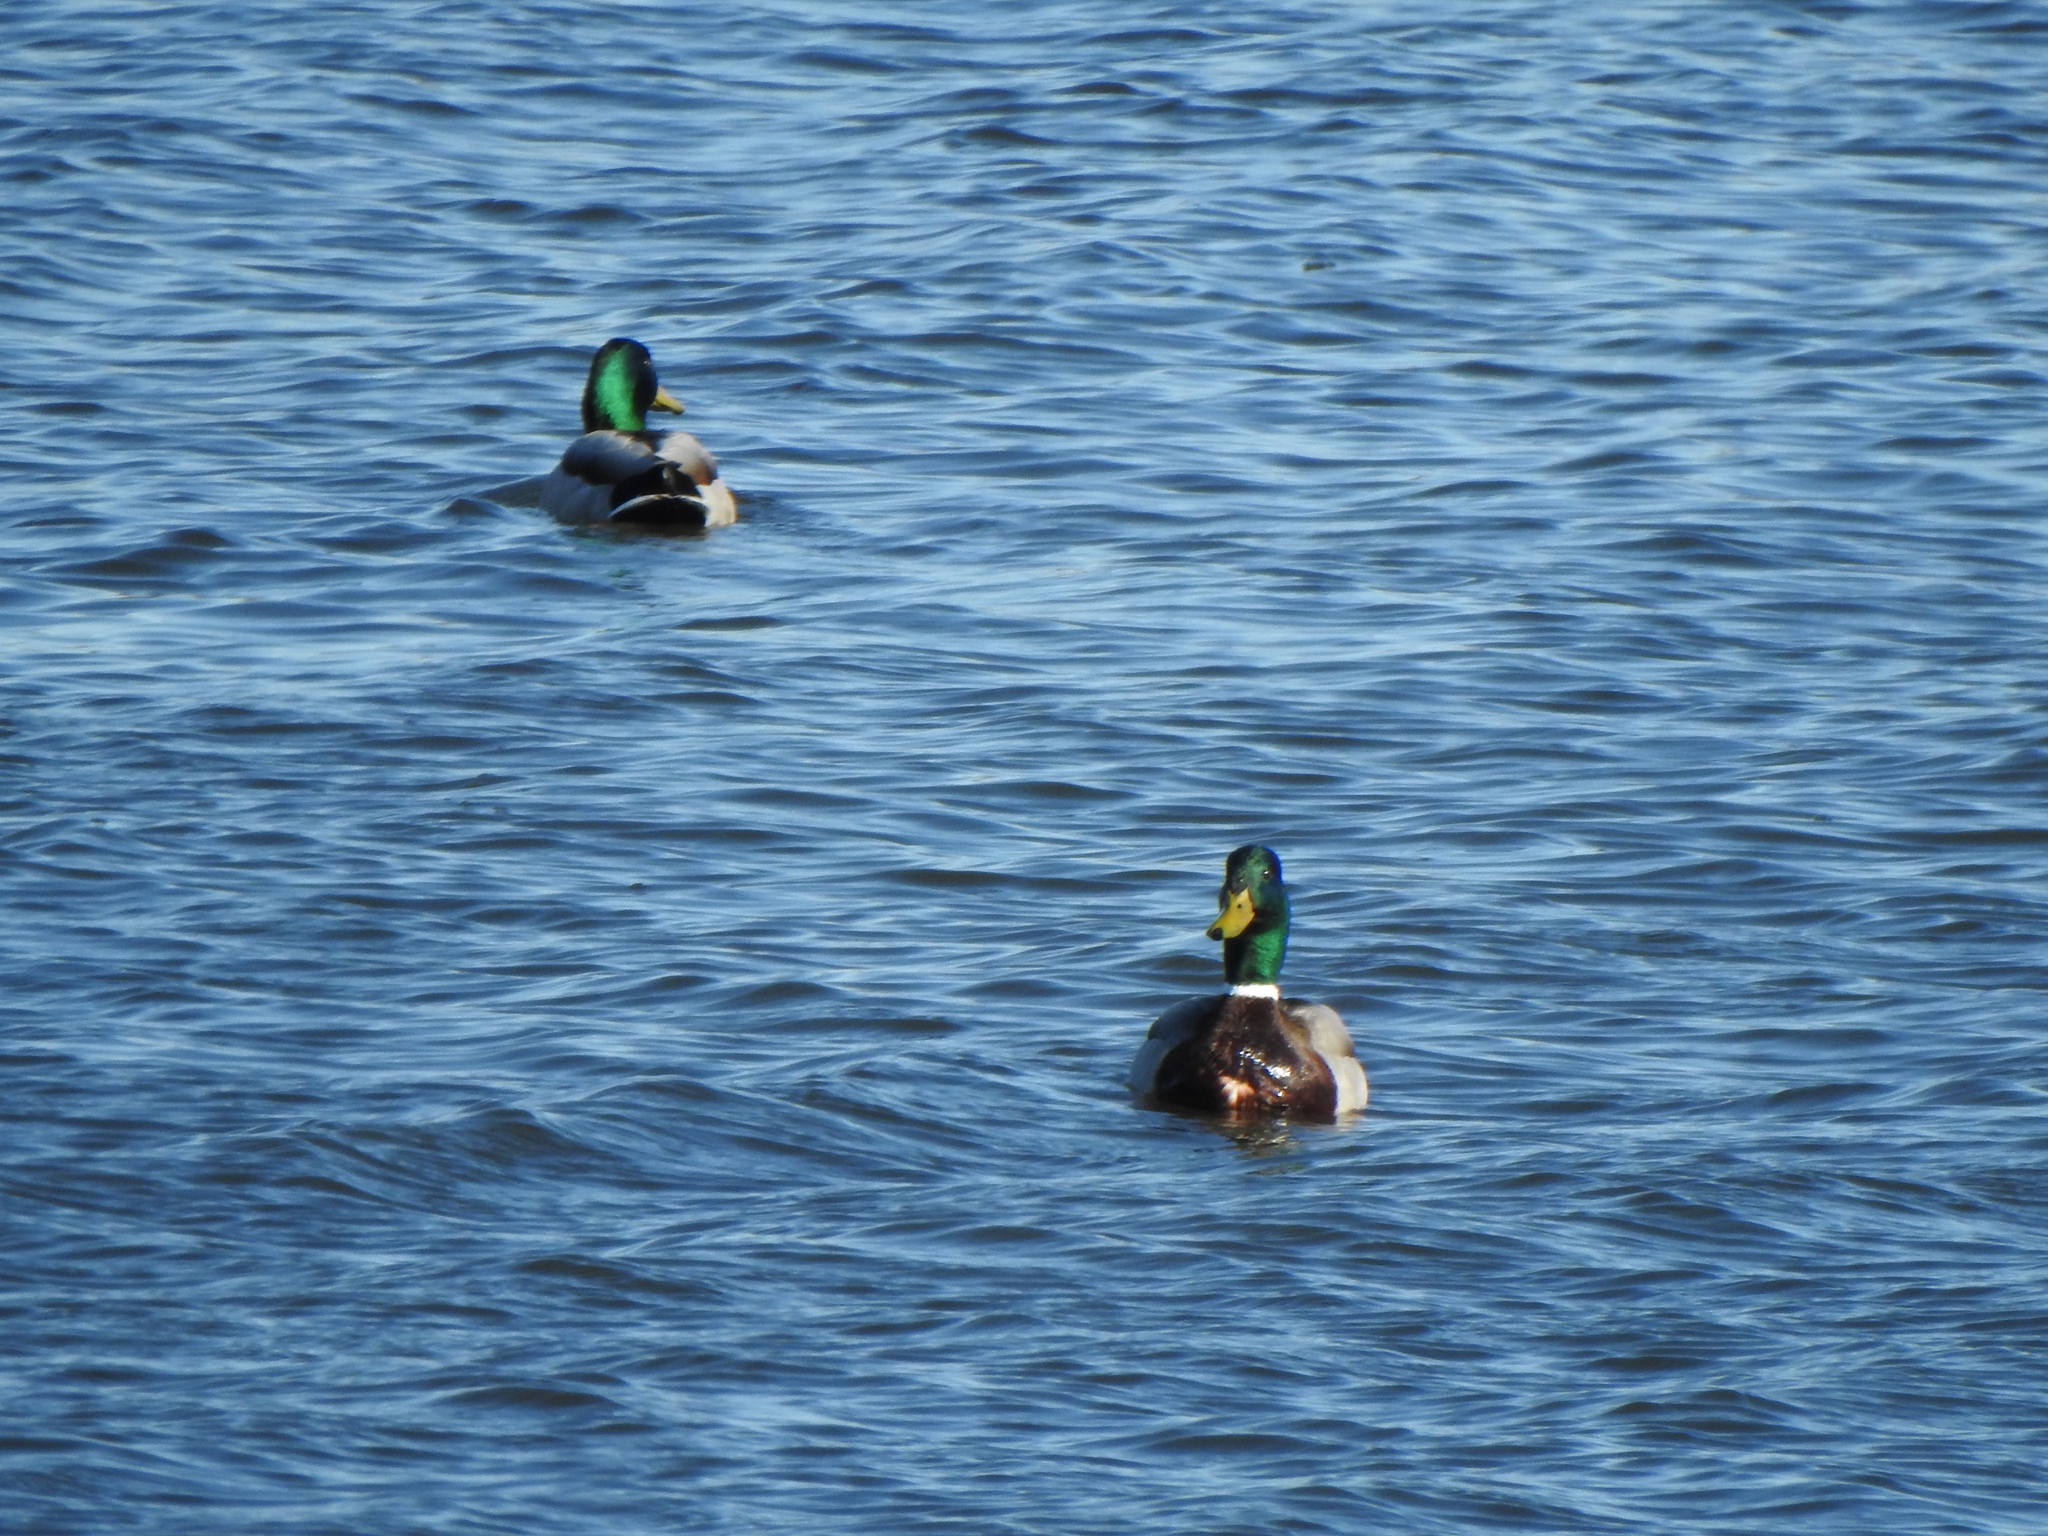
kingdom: Animalia
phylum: Chordata
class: Aves
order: Anseriformes
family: Anatidae
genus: Anas
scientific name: Anas platyrhynchos
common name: Mallard
